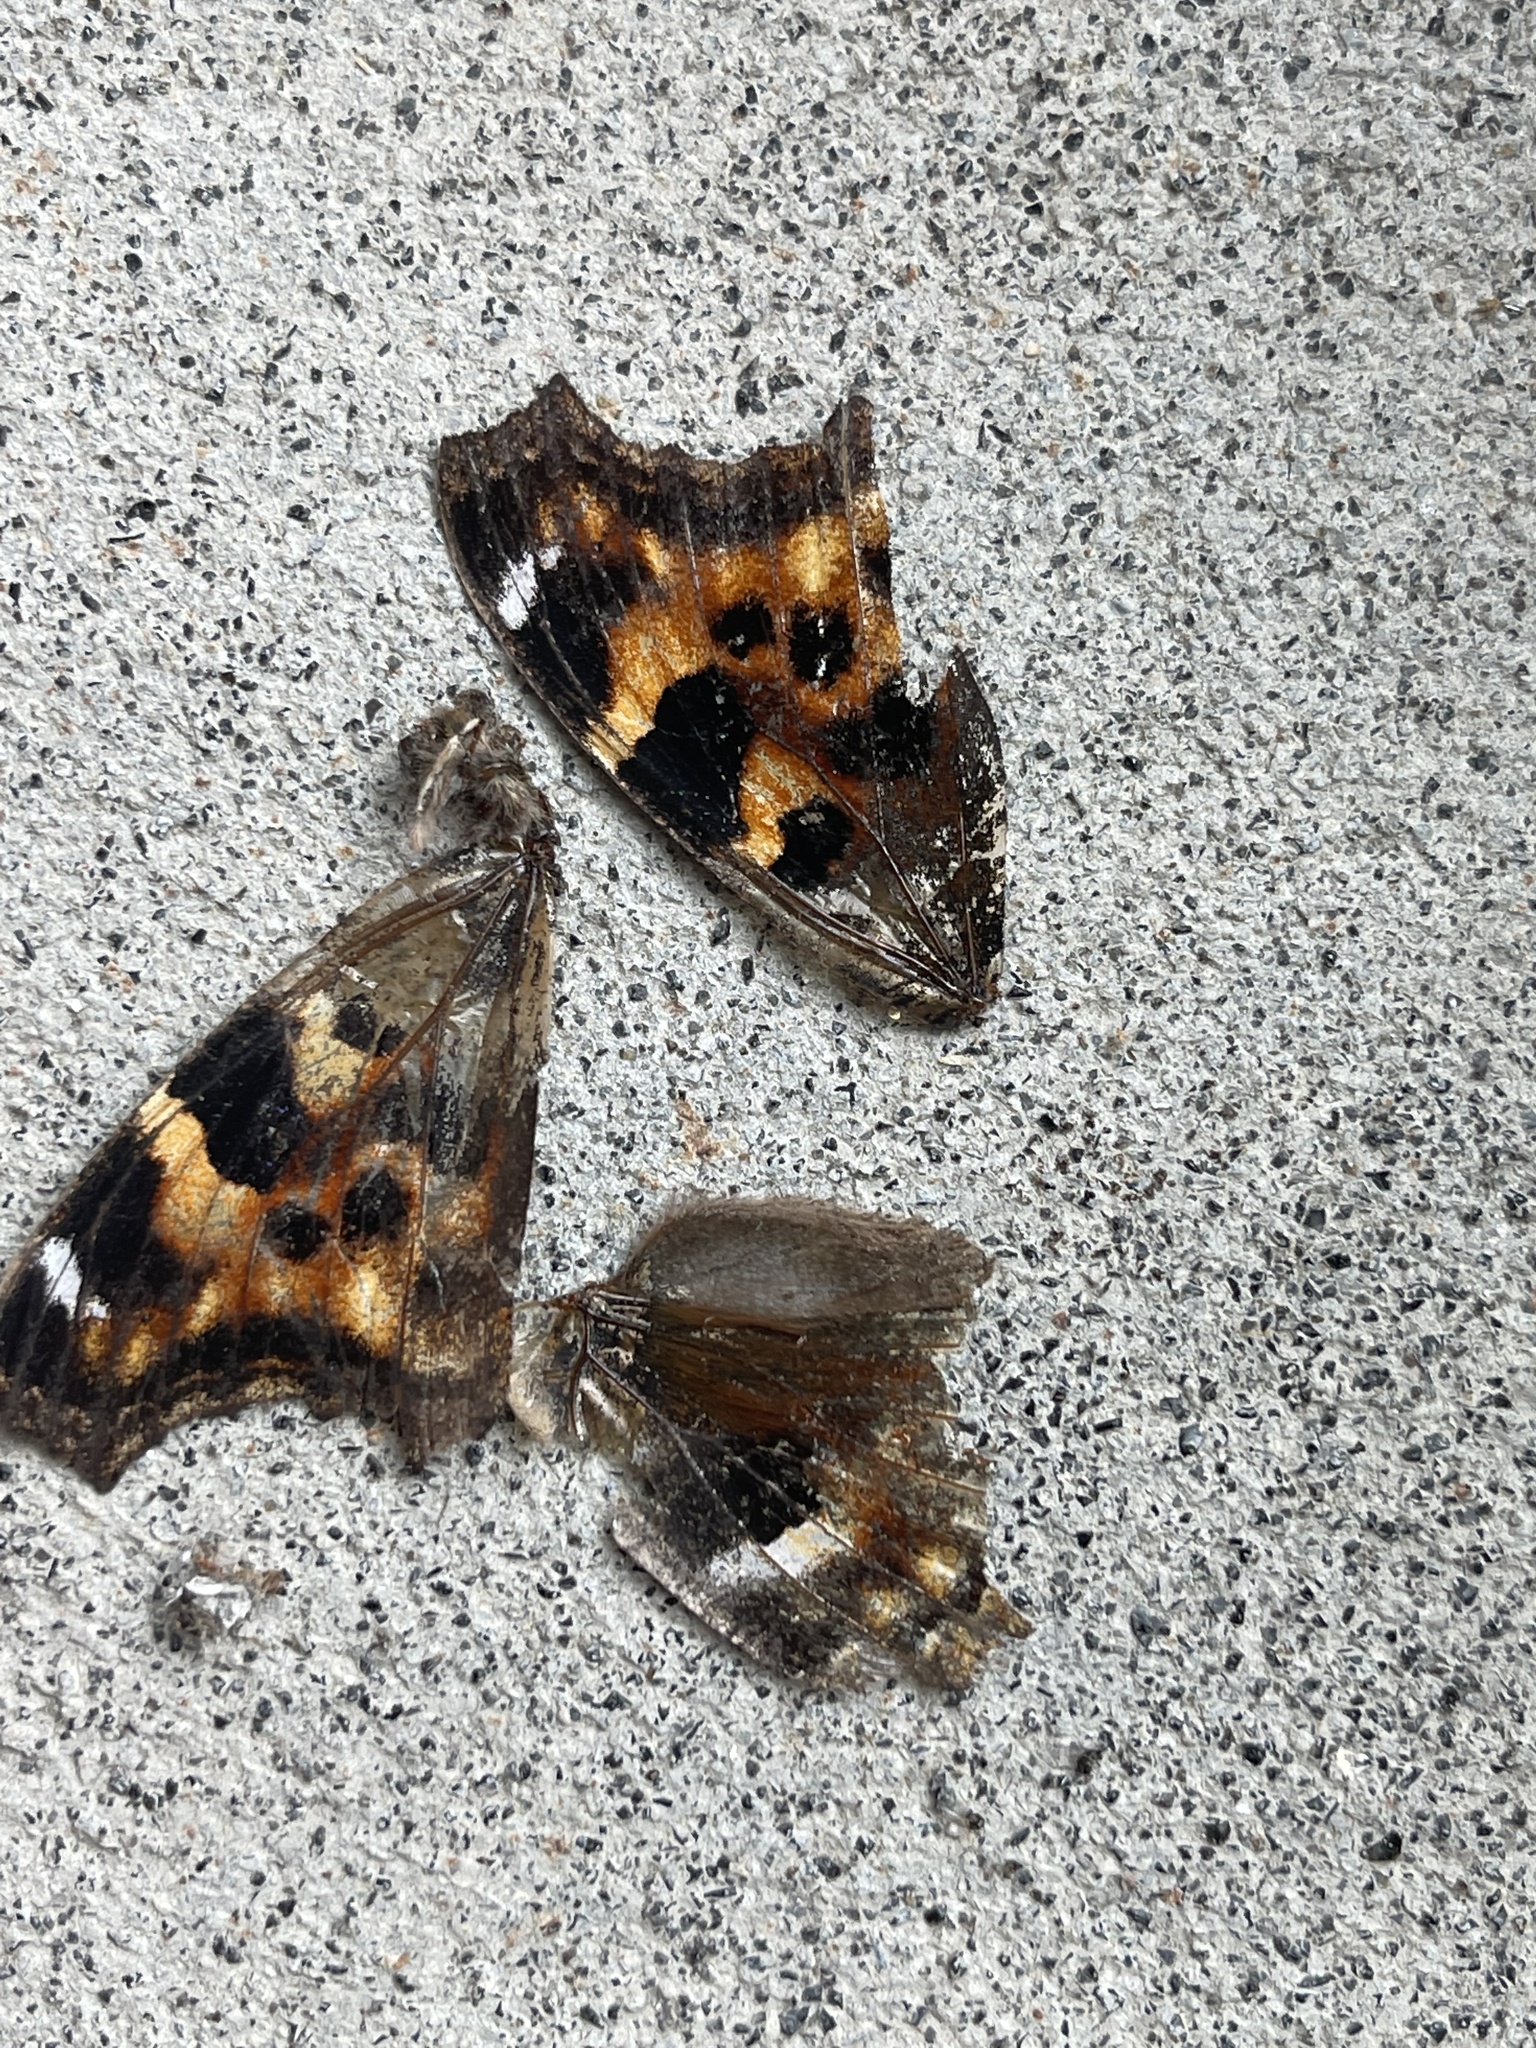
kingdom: Animalia
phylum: Arthropoda
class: Insecta
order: Lepidoptera
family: Nymphalidae
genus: Polygonia
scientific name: Polygonia vaualbum
